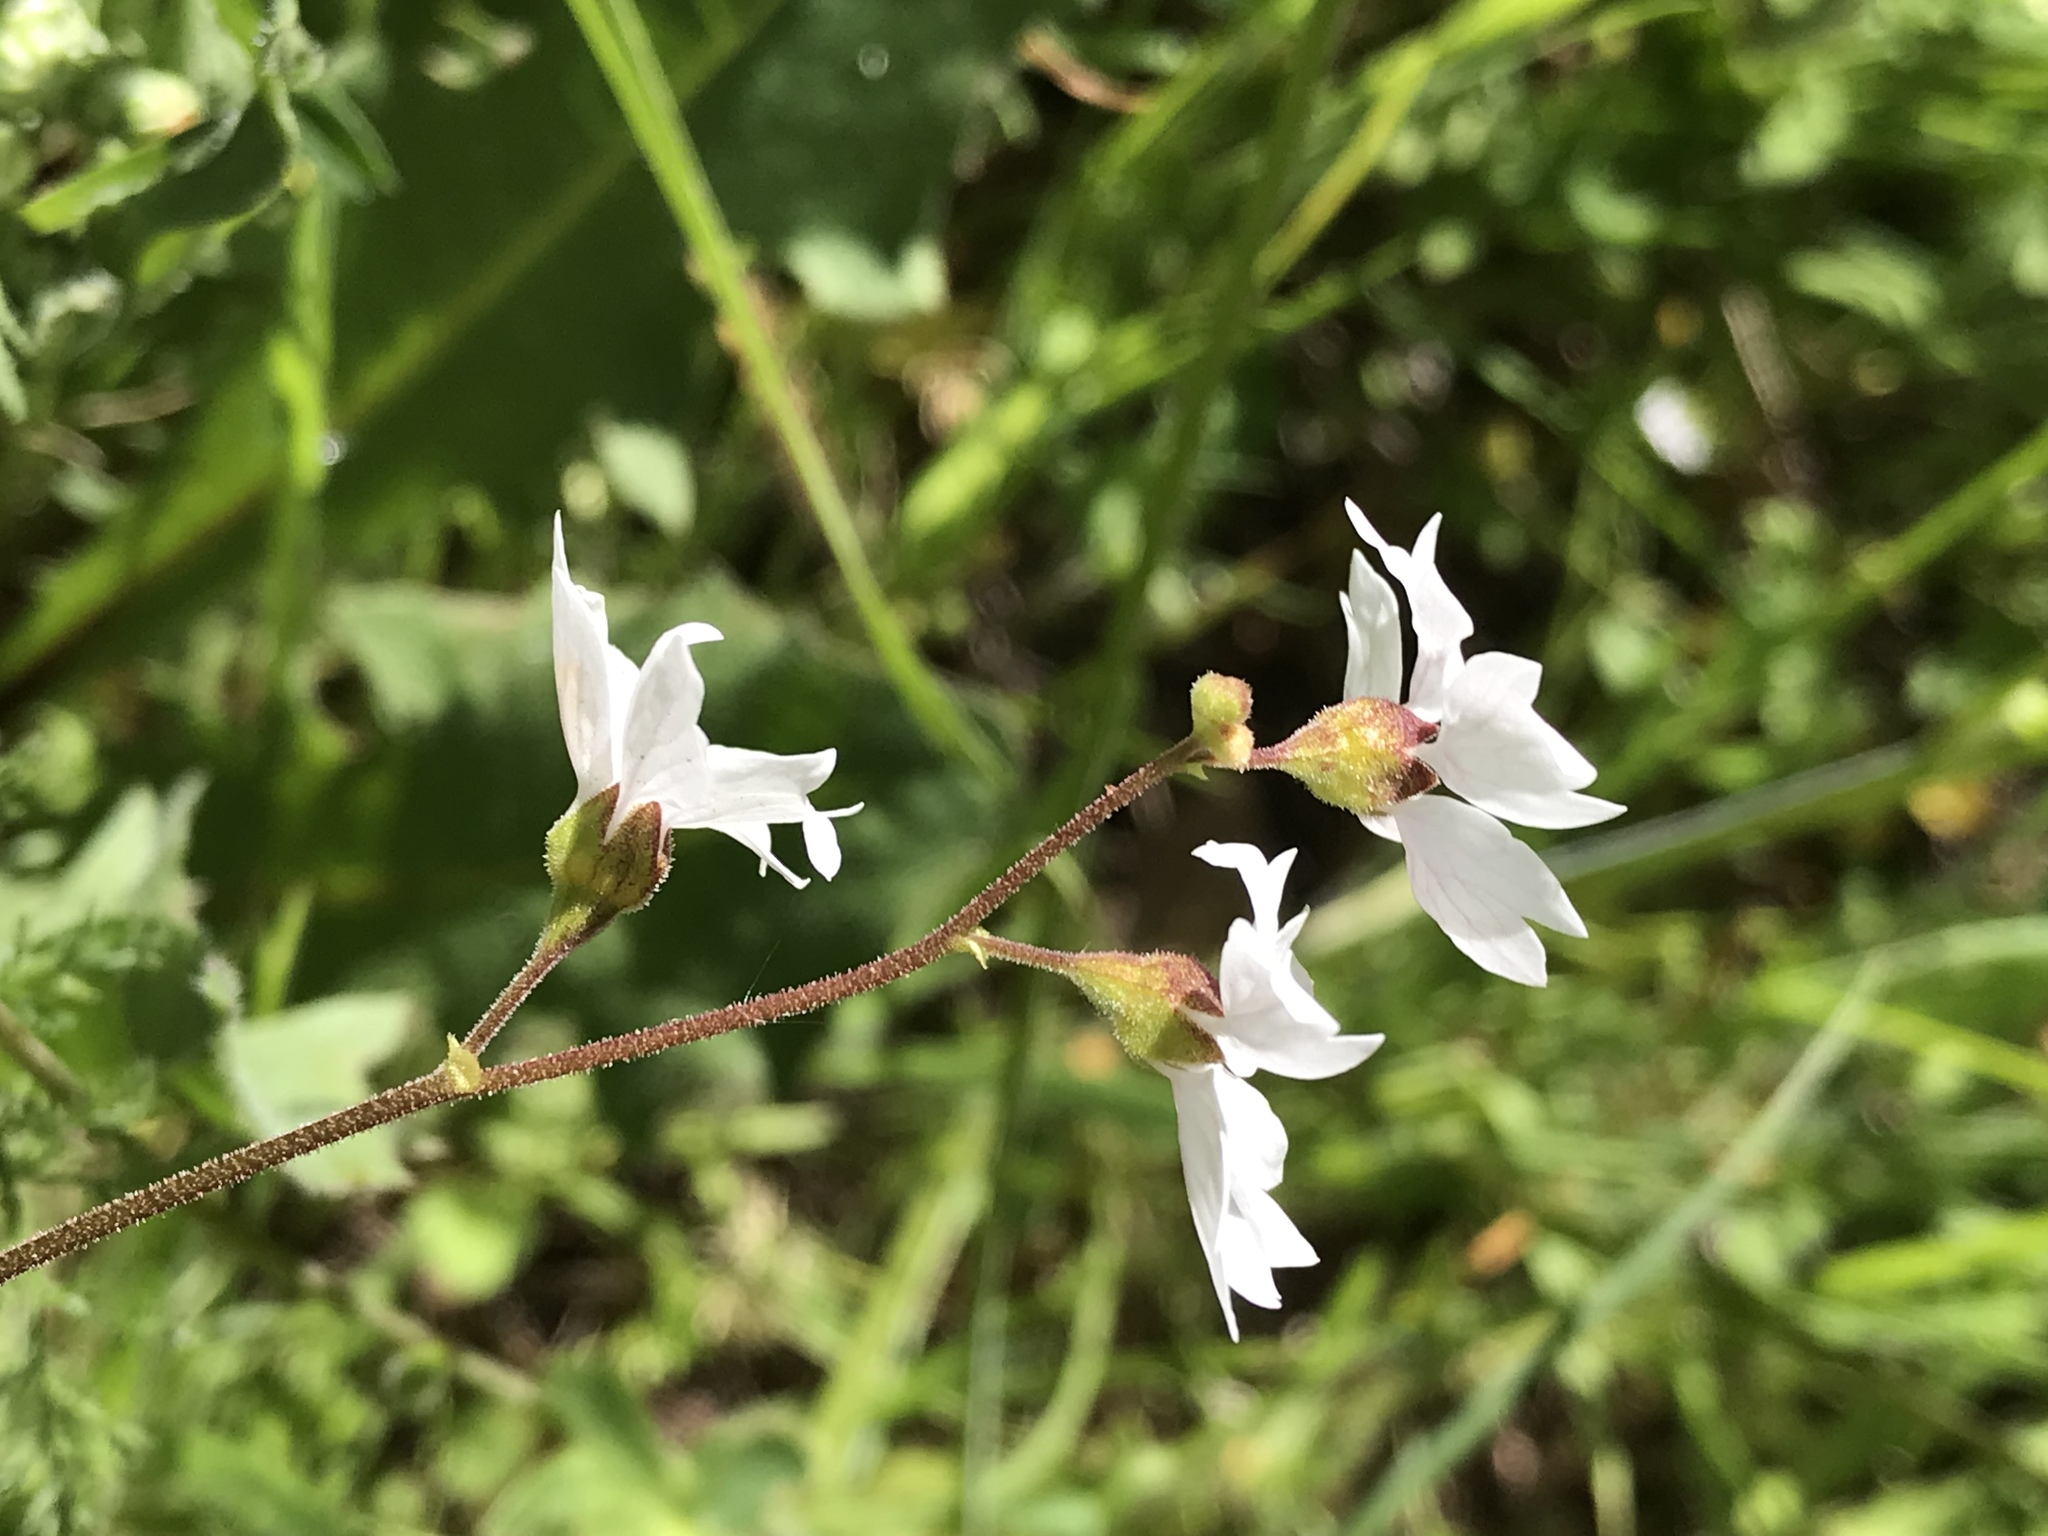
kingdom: Plantae
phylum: Tracheophyta
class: Magnoliopsida
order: Saxifragales
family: Saxifragaceae
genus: Lithophragma
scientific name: Lithophragma affine
